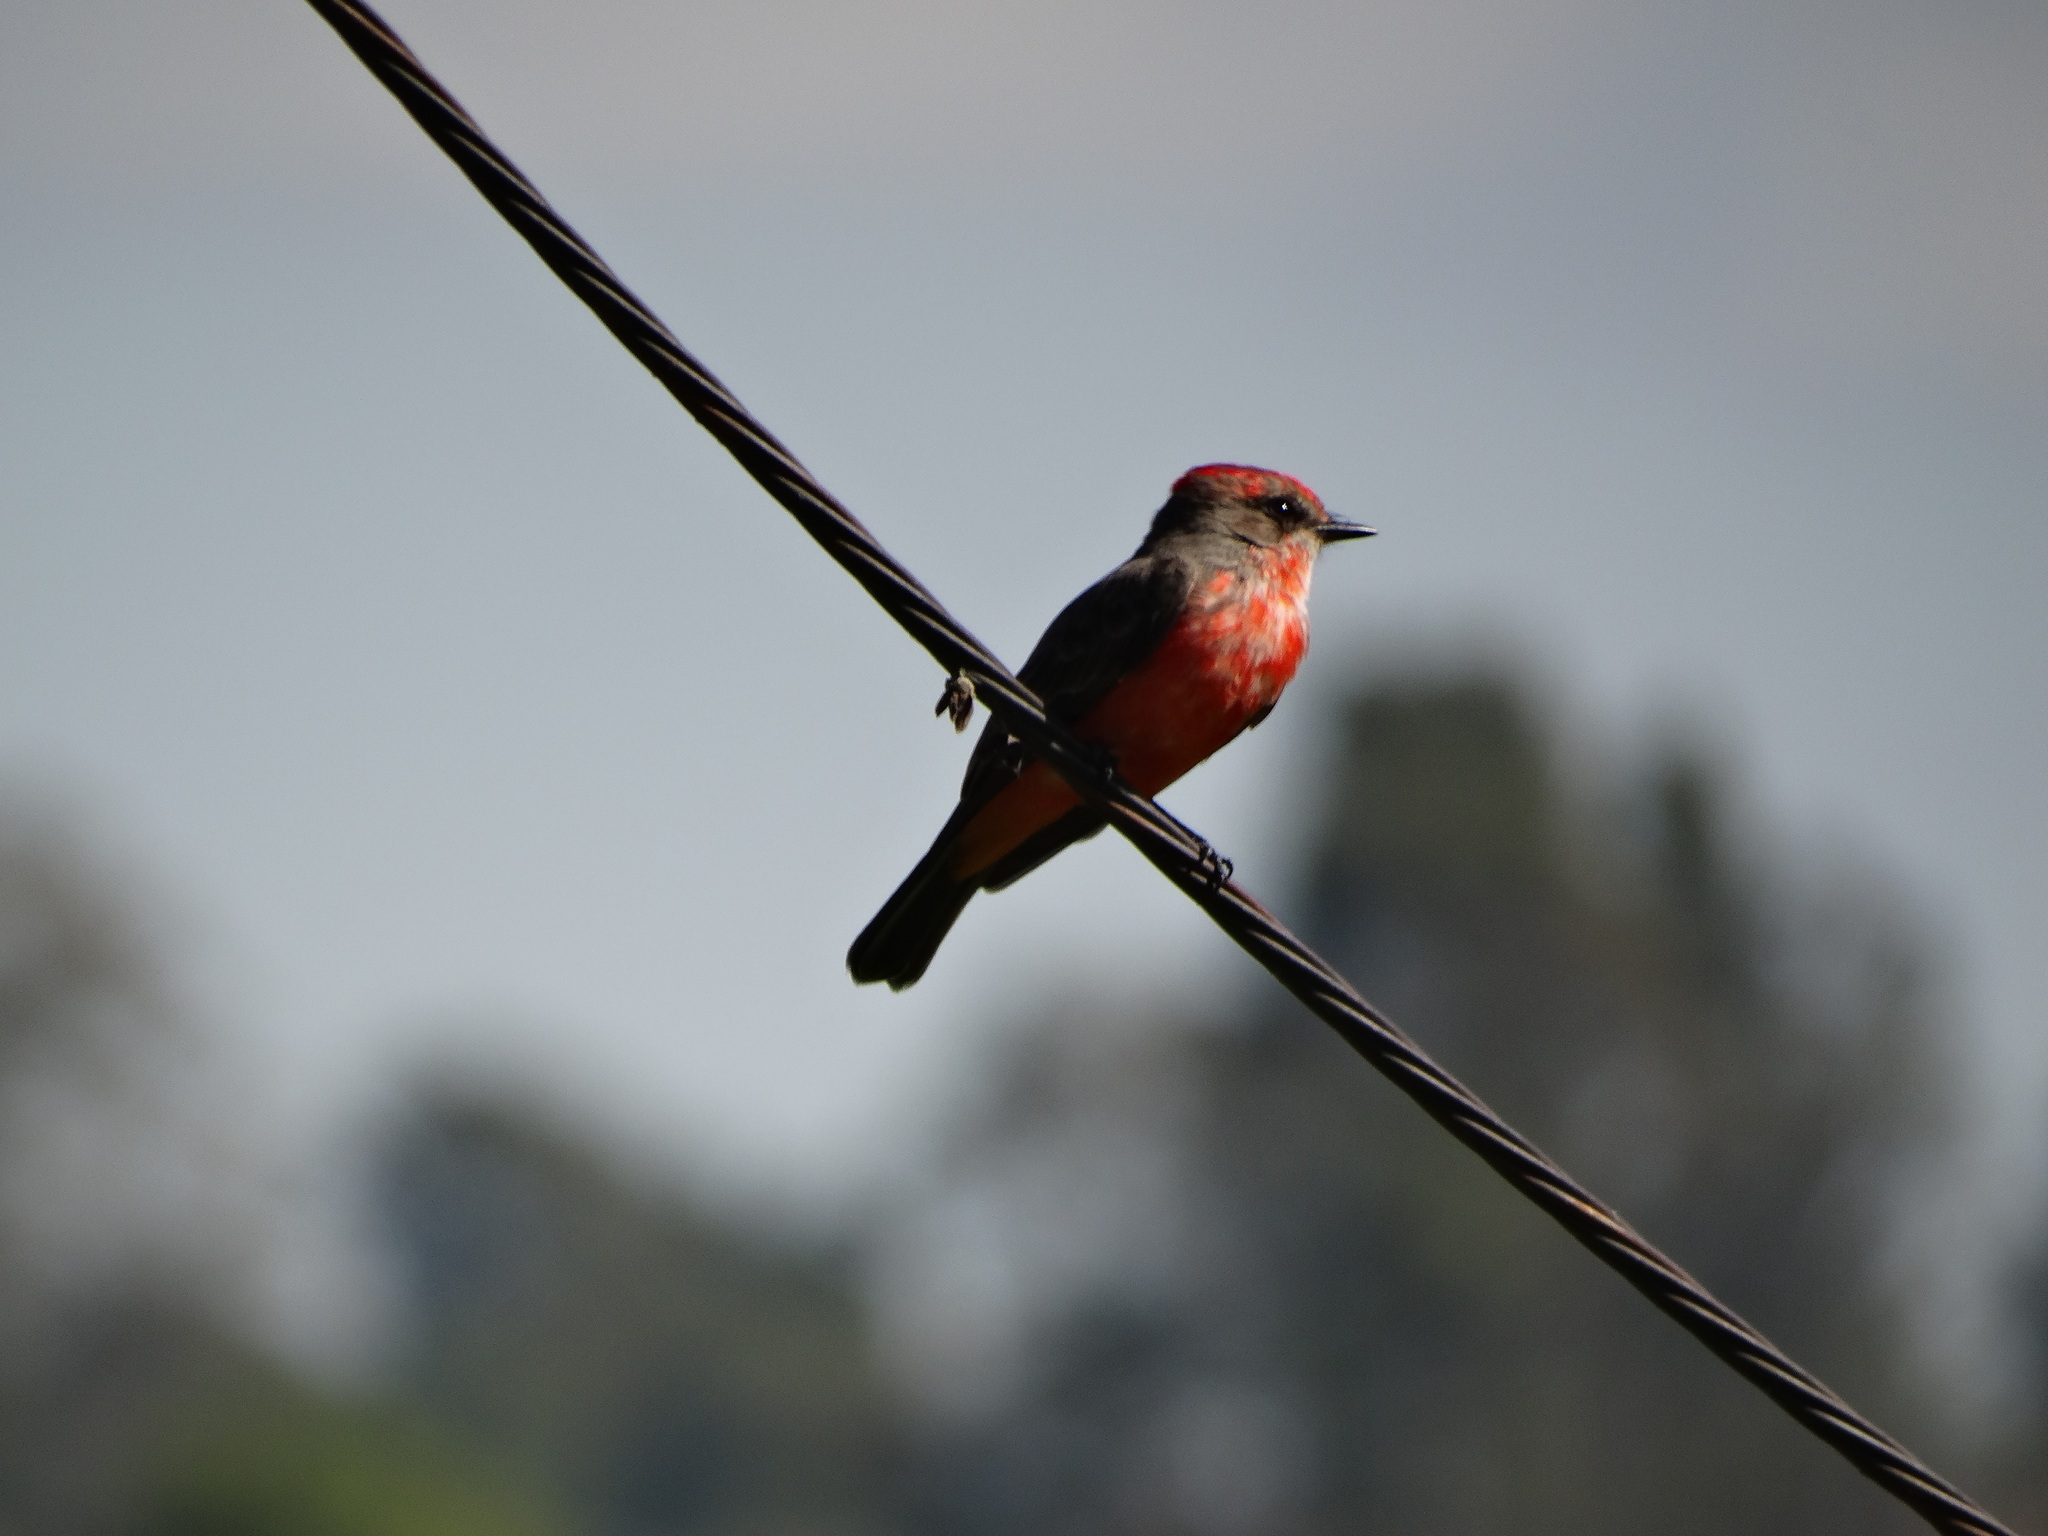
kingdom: Animalia
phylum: Chordata
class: Aves
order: Passeriformes
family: Tyrannidae
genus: Pyrocephalus
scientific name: Pyrocephalus rubinus
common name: Vermilion flycatcher
